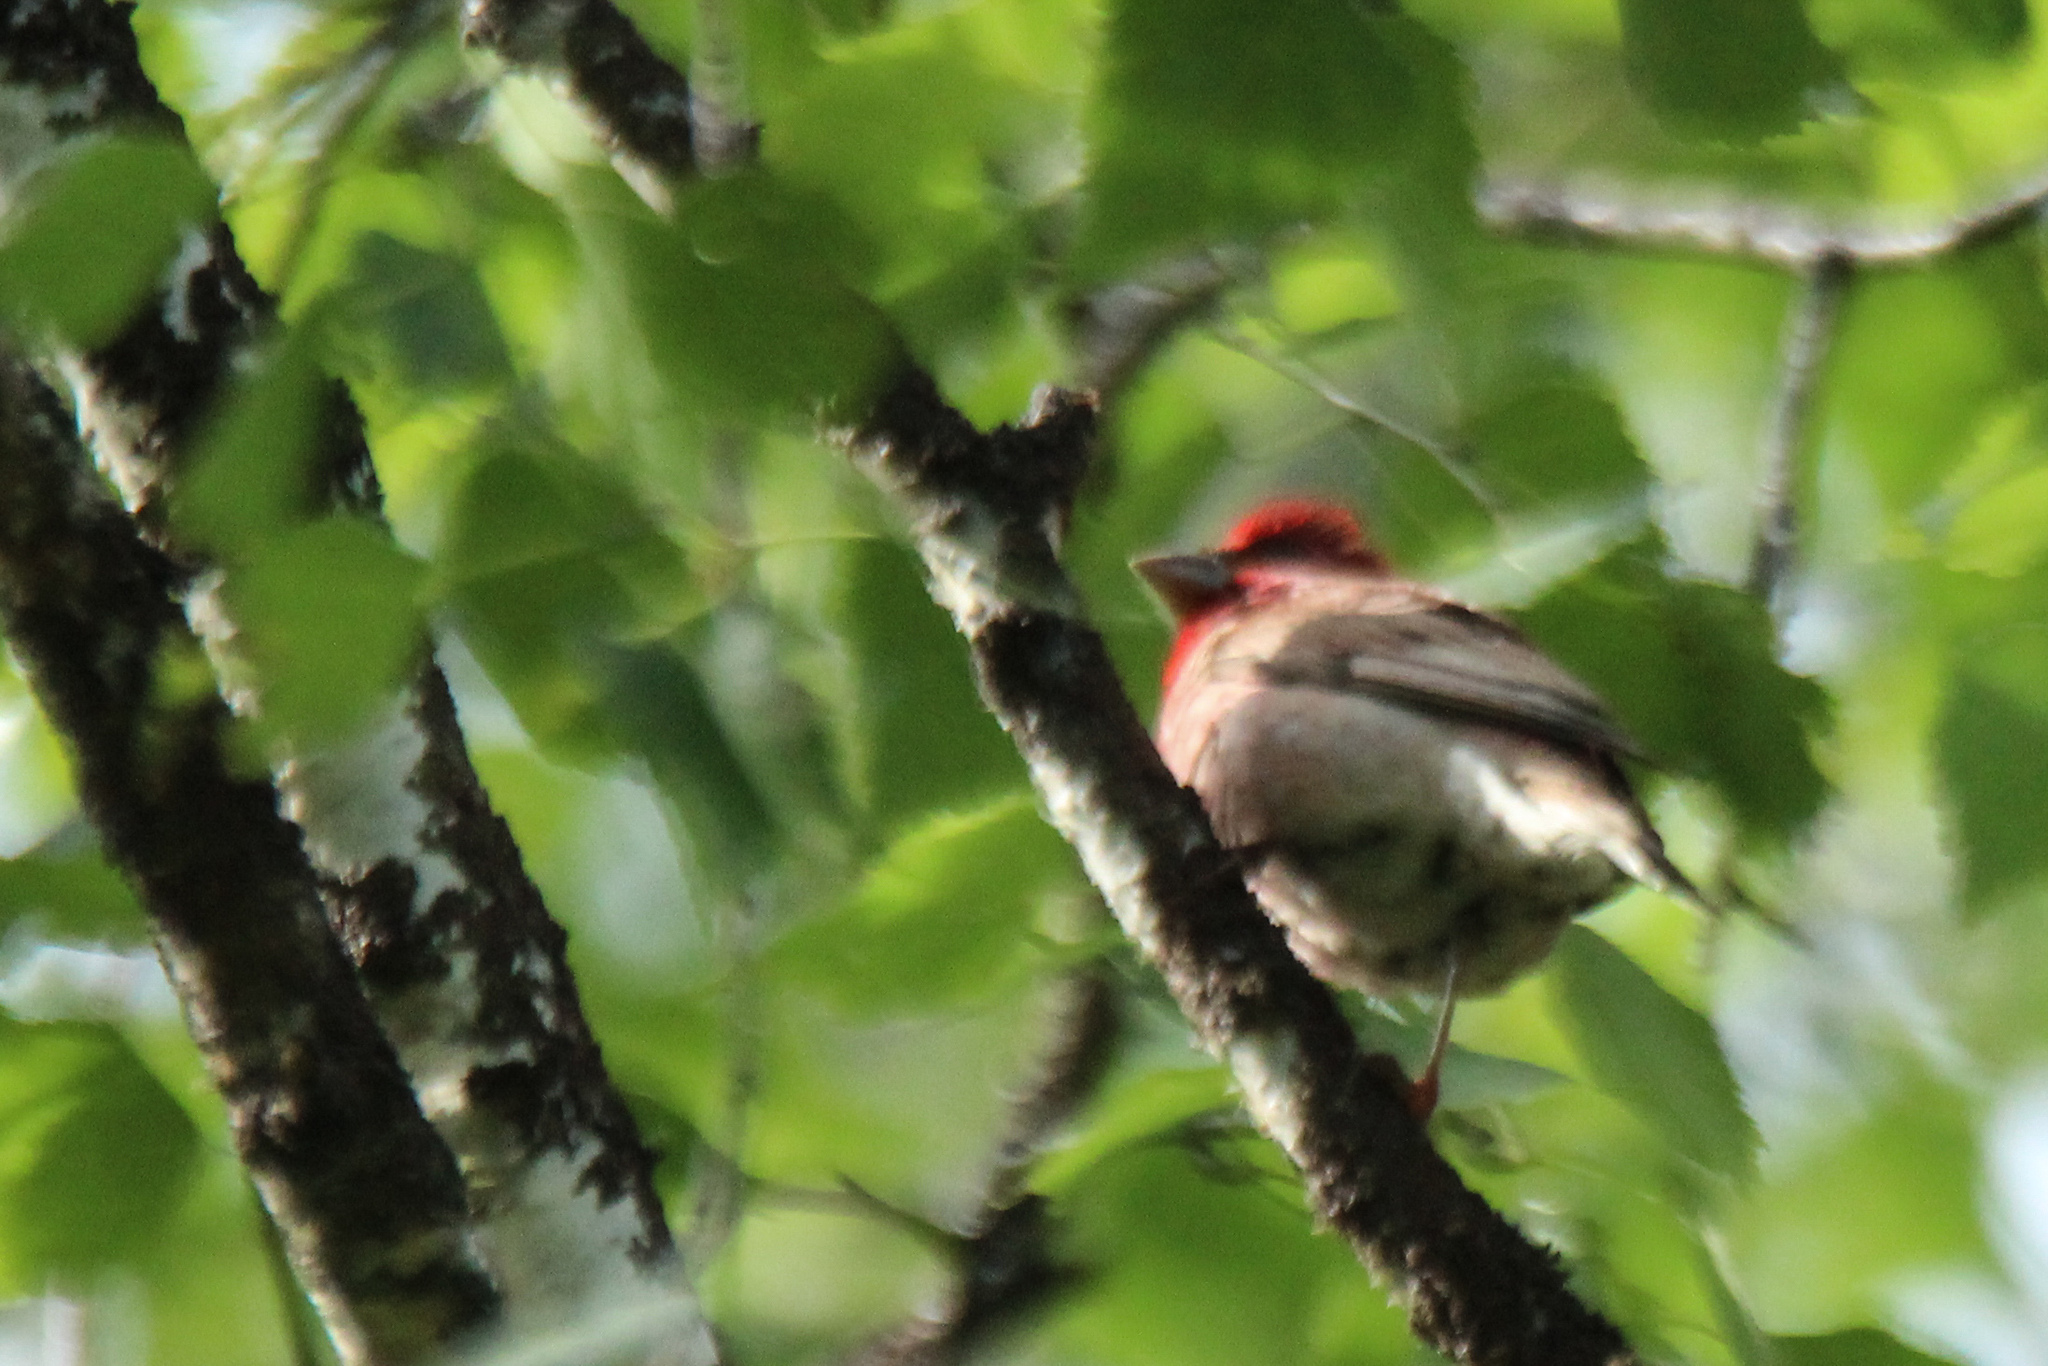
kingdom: Animalia
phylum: Chordata
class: Aves
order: Passeriformes
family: Fringillidae
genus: Carpodacus
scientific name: Carpodacus erythrinus
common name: Common rosefinch
